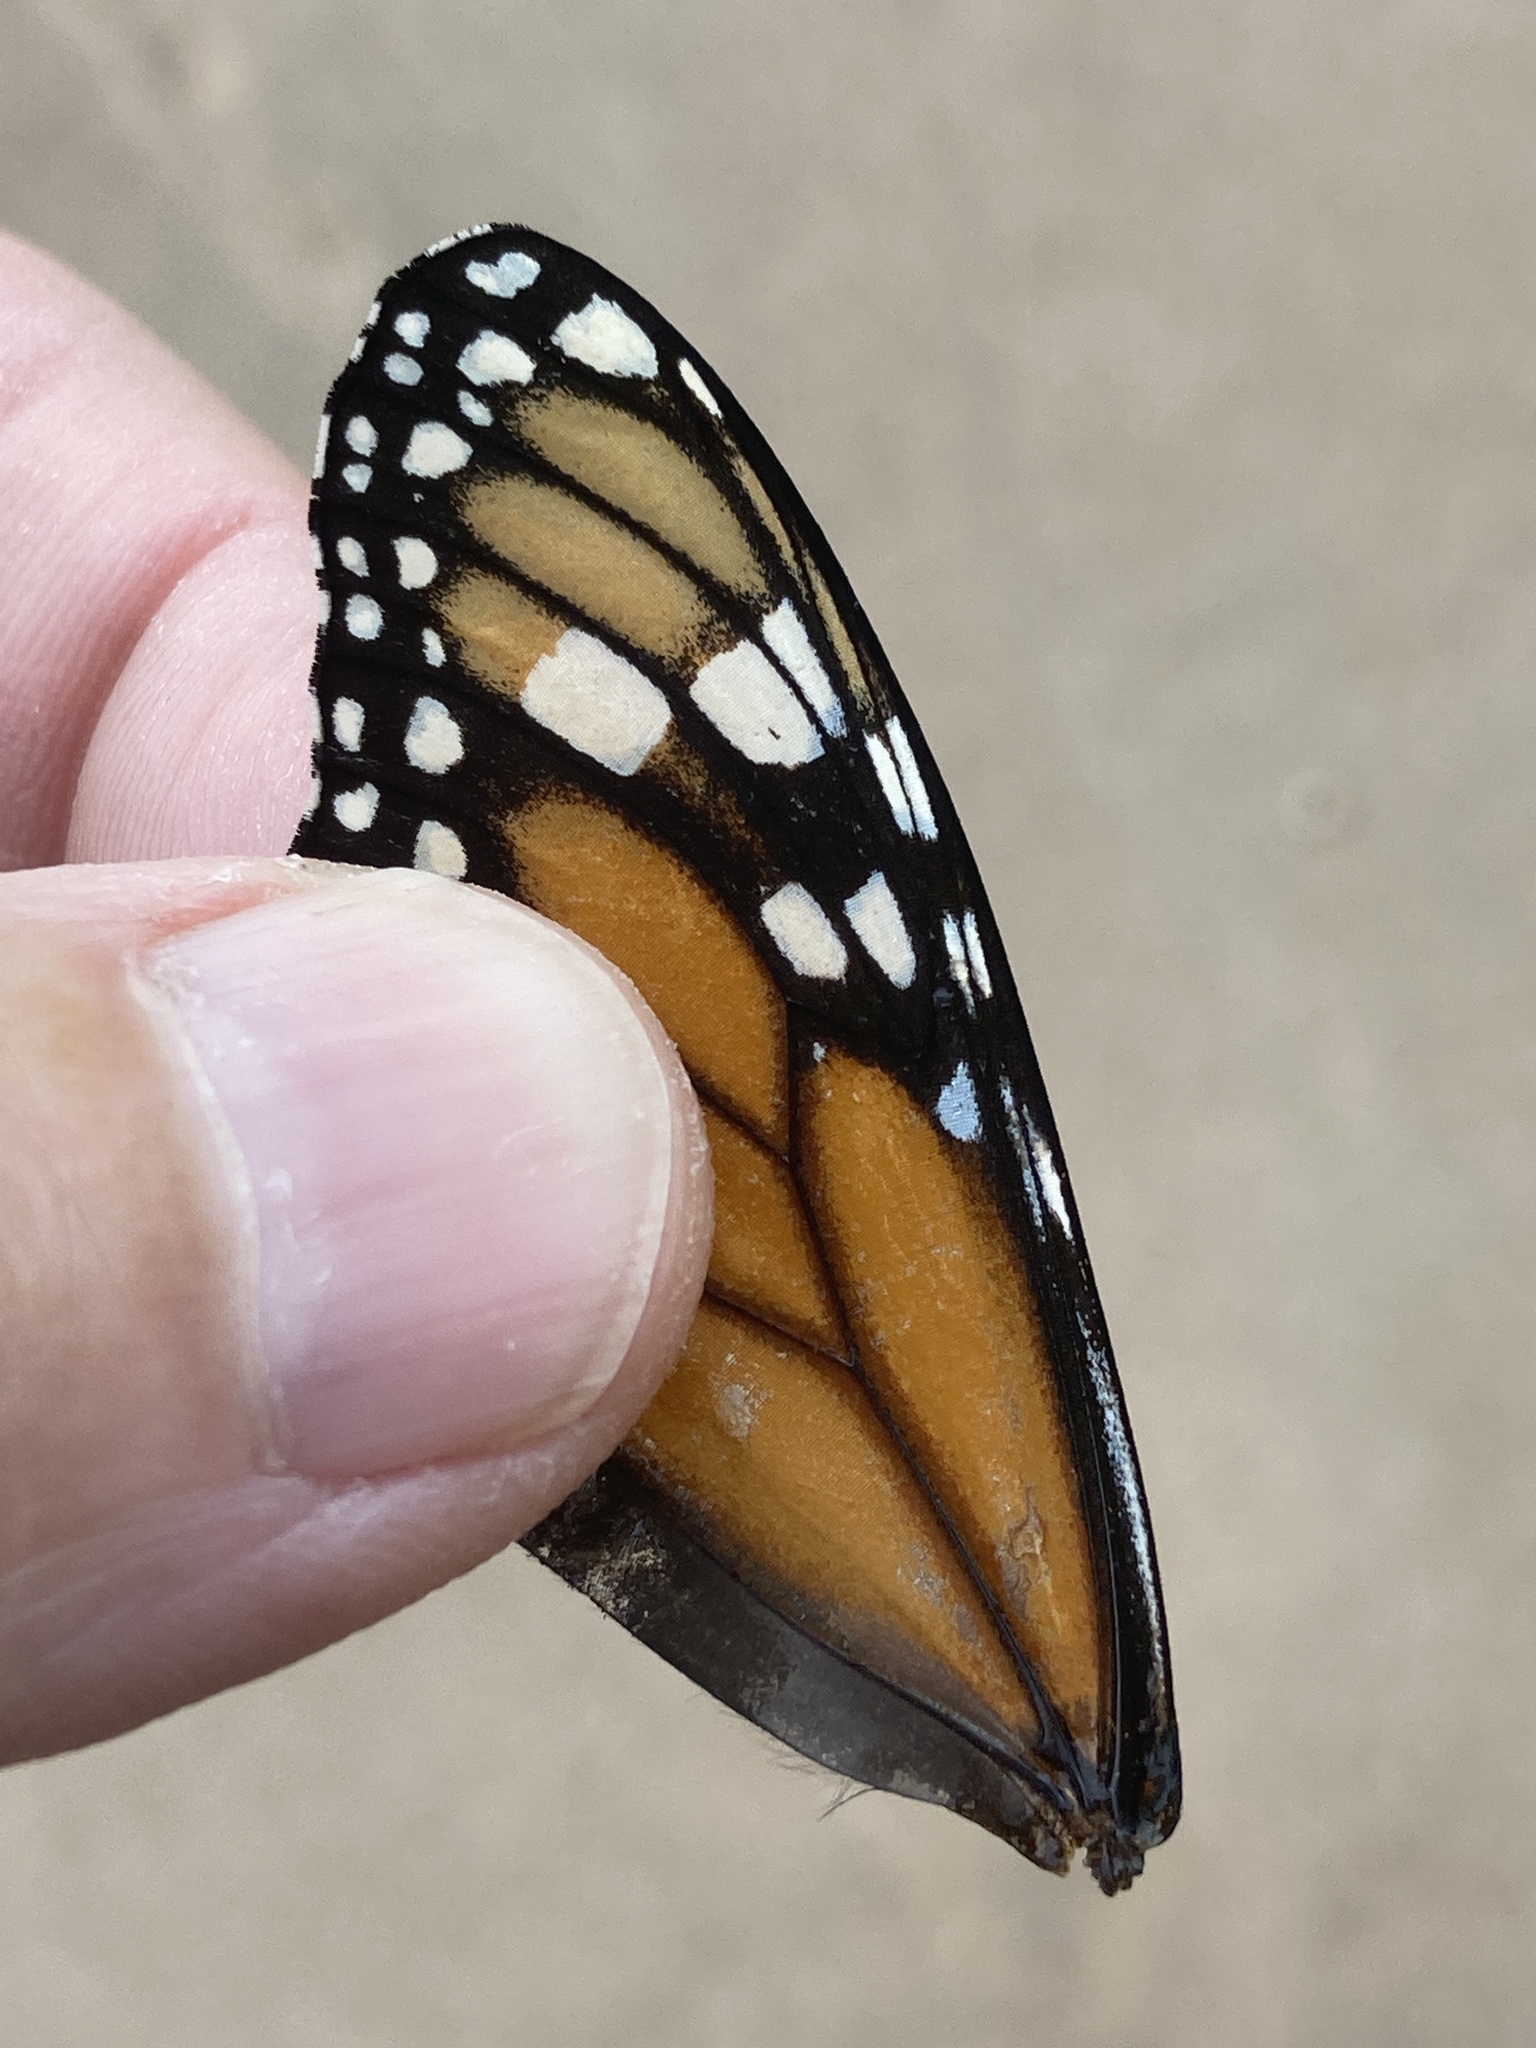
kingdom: Animalia
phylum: Arthropoda
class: Insecta
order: Lepidoptera
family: Nymphalidae
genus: Danaus
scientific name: Danaus plexippus
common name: Monarch
